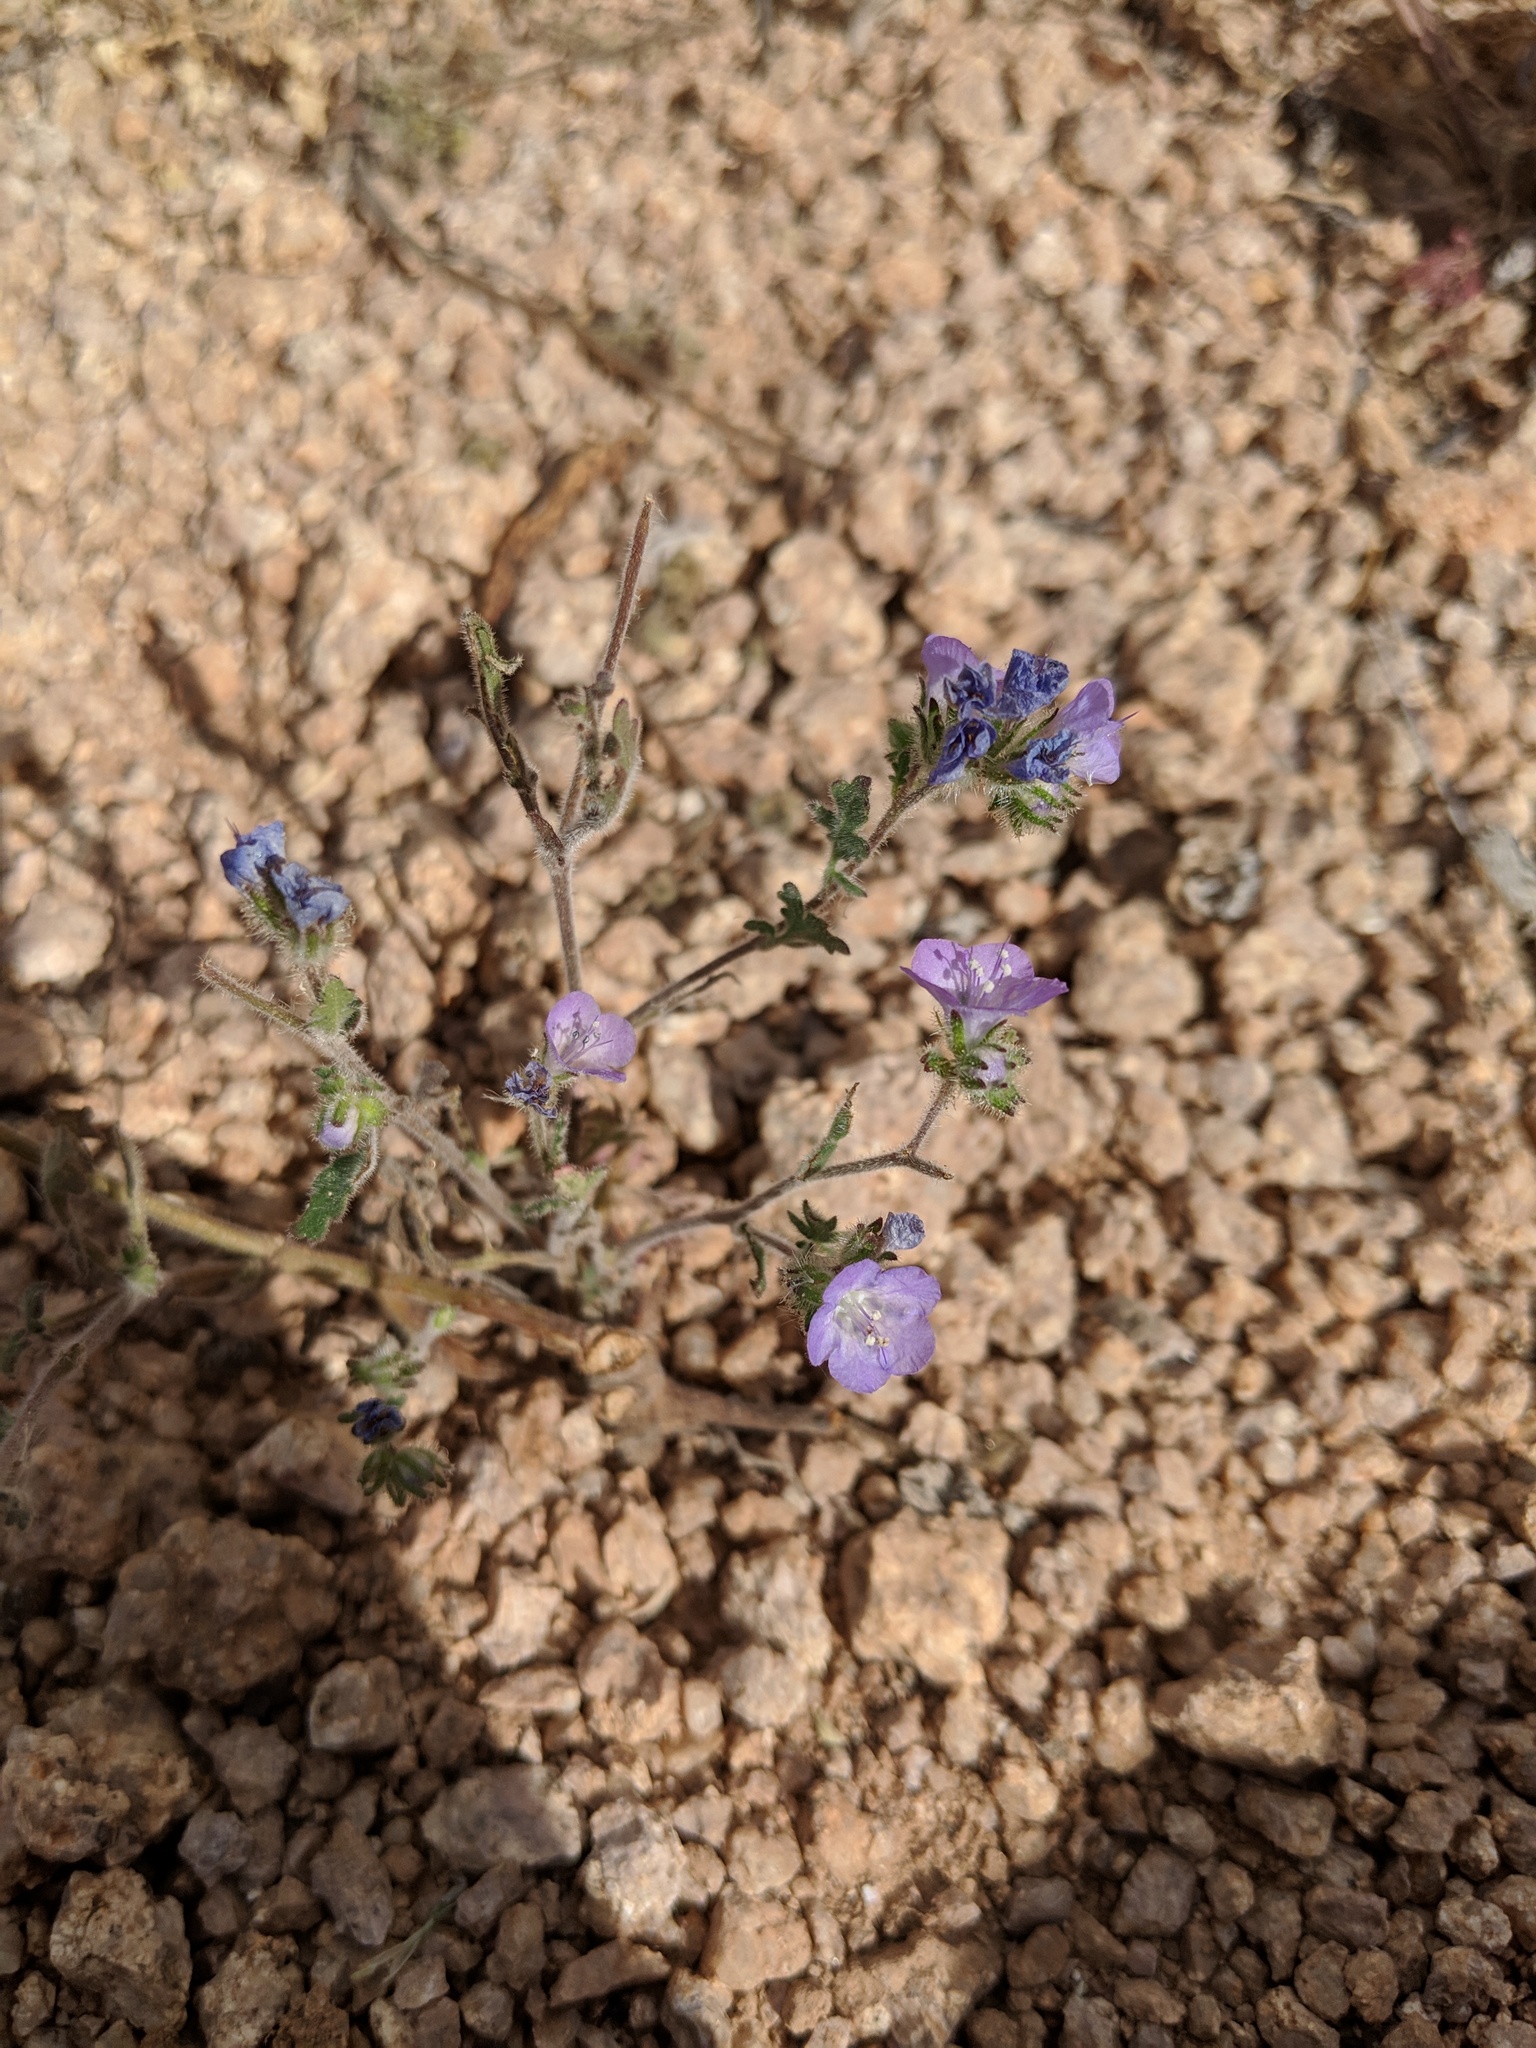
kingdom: Plantae
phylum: Tracheophyta
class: Magnoliopsida
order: Boraginales
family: Hydrophyllaceae
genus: Phacelia
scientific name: Phacelia distans
